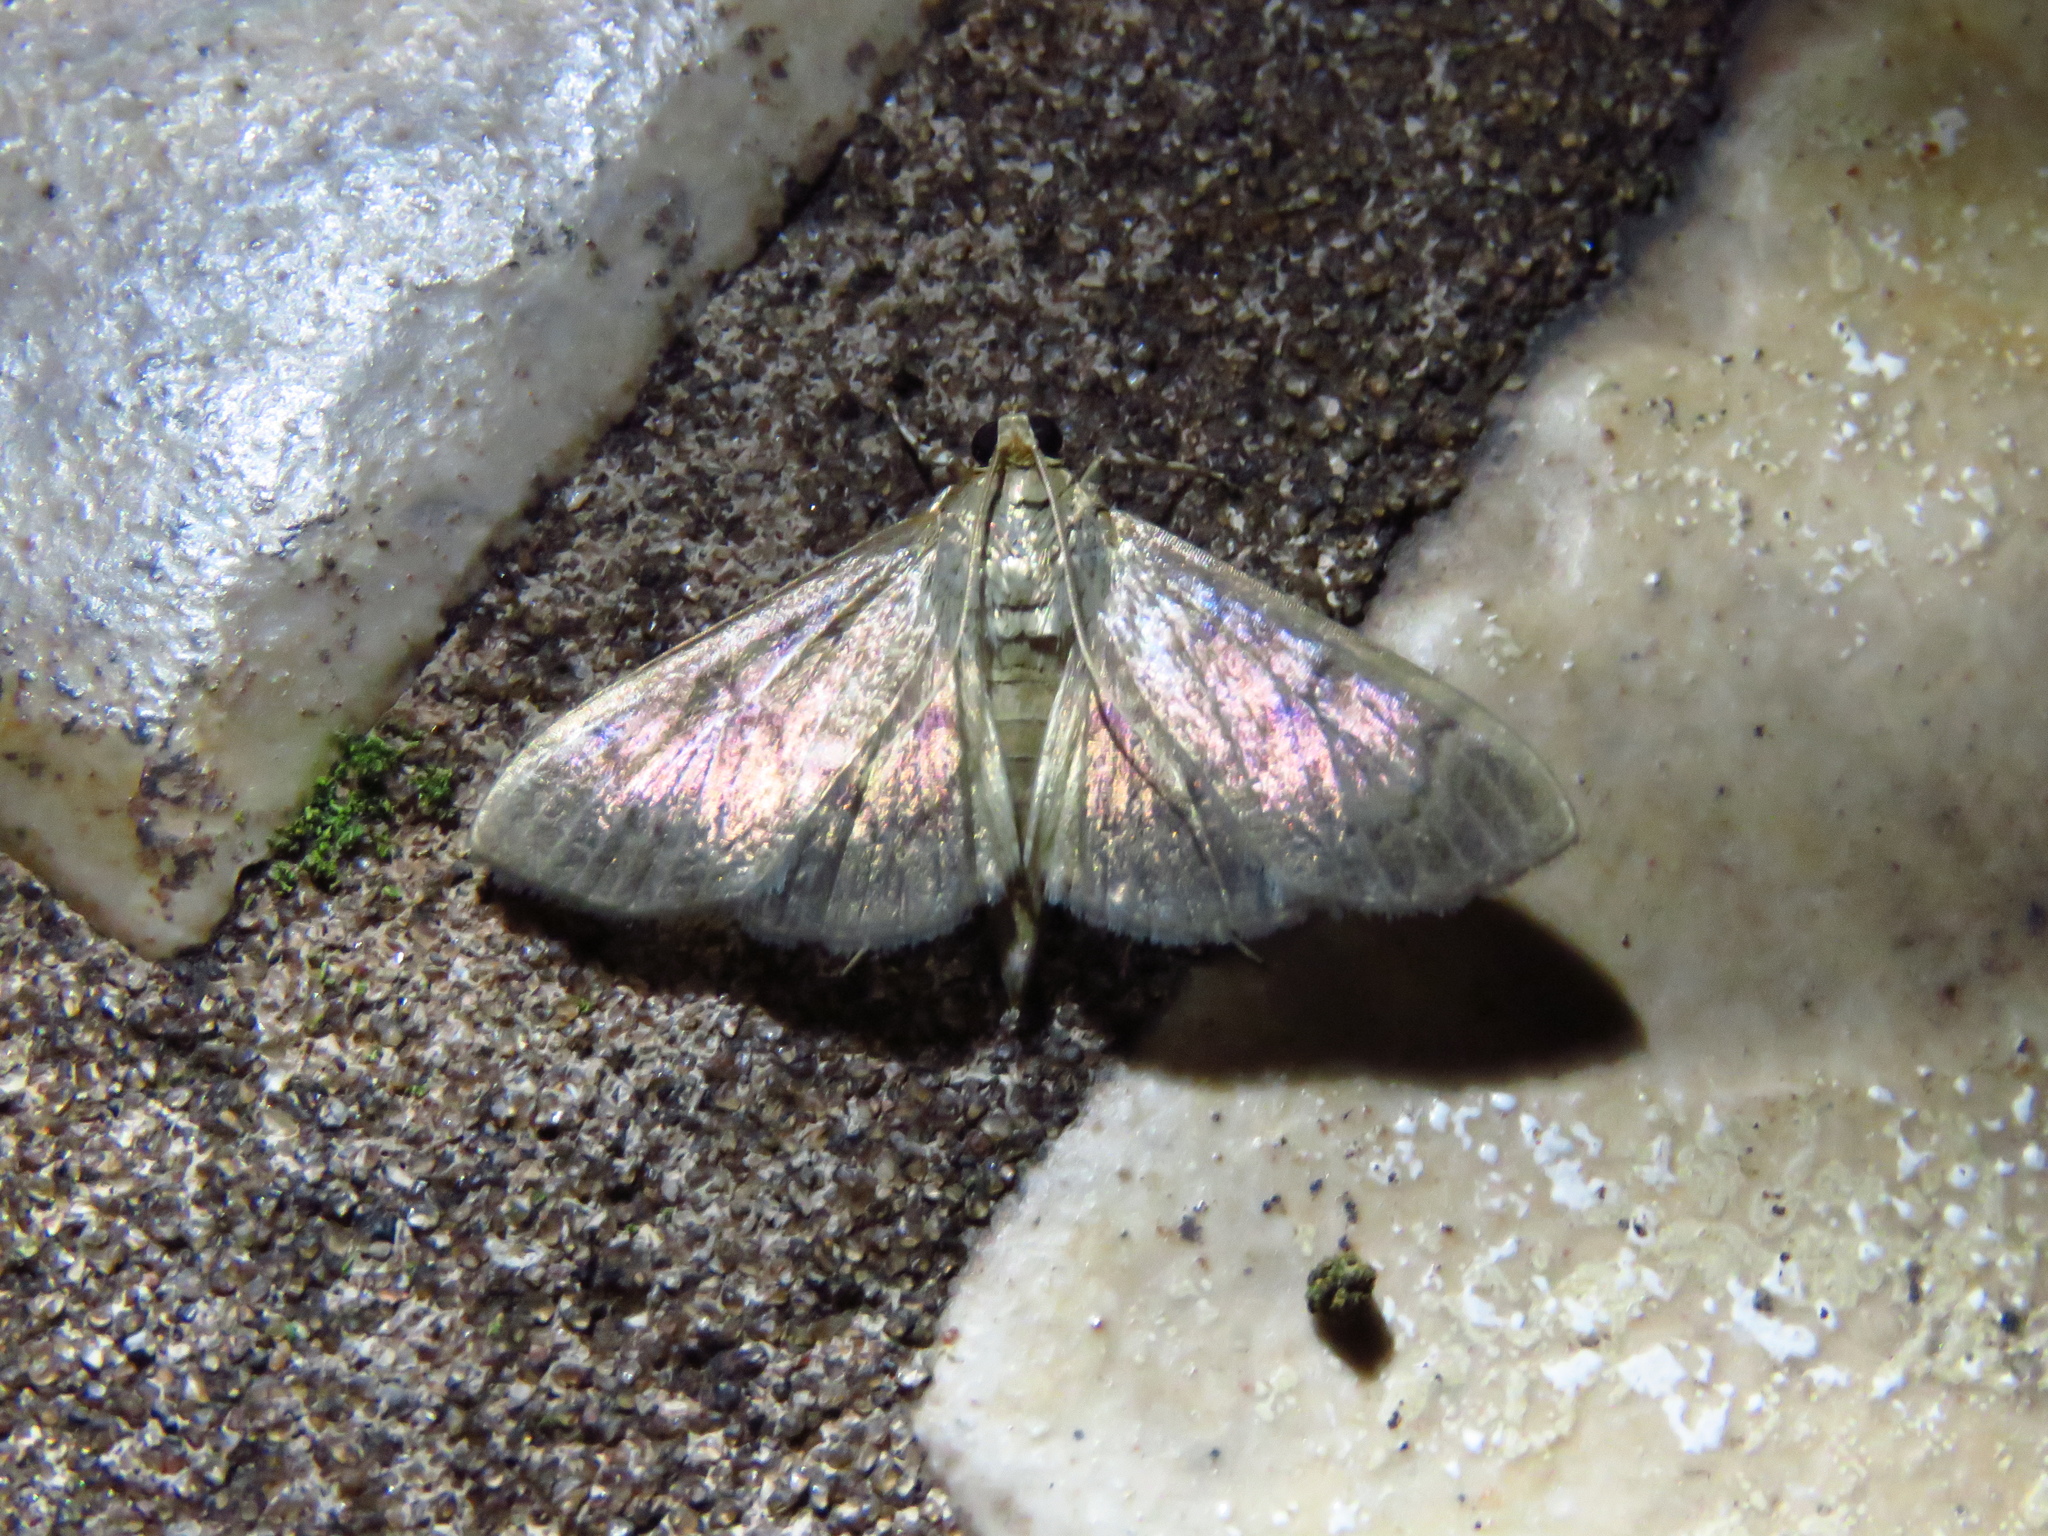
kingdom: Animalia
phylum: Arthropoda
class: Insecta
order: Lepidoptera
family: Crambidae
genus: Condylorrhiza
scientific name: Condylorrhiza vestigialis
